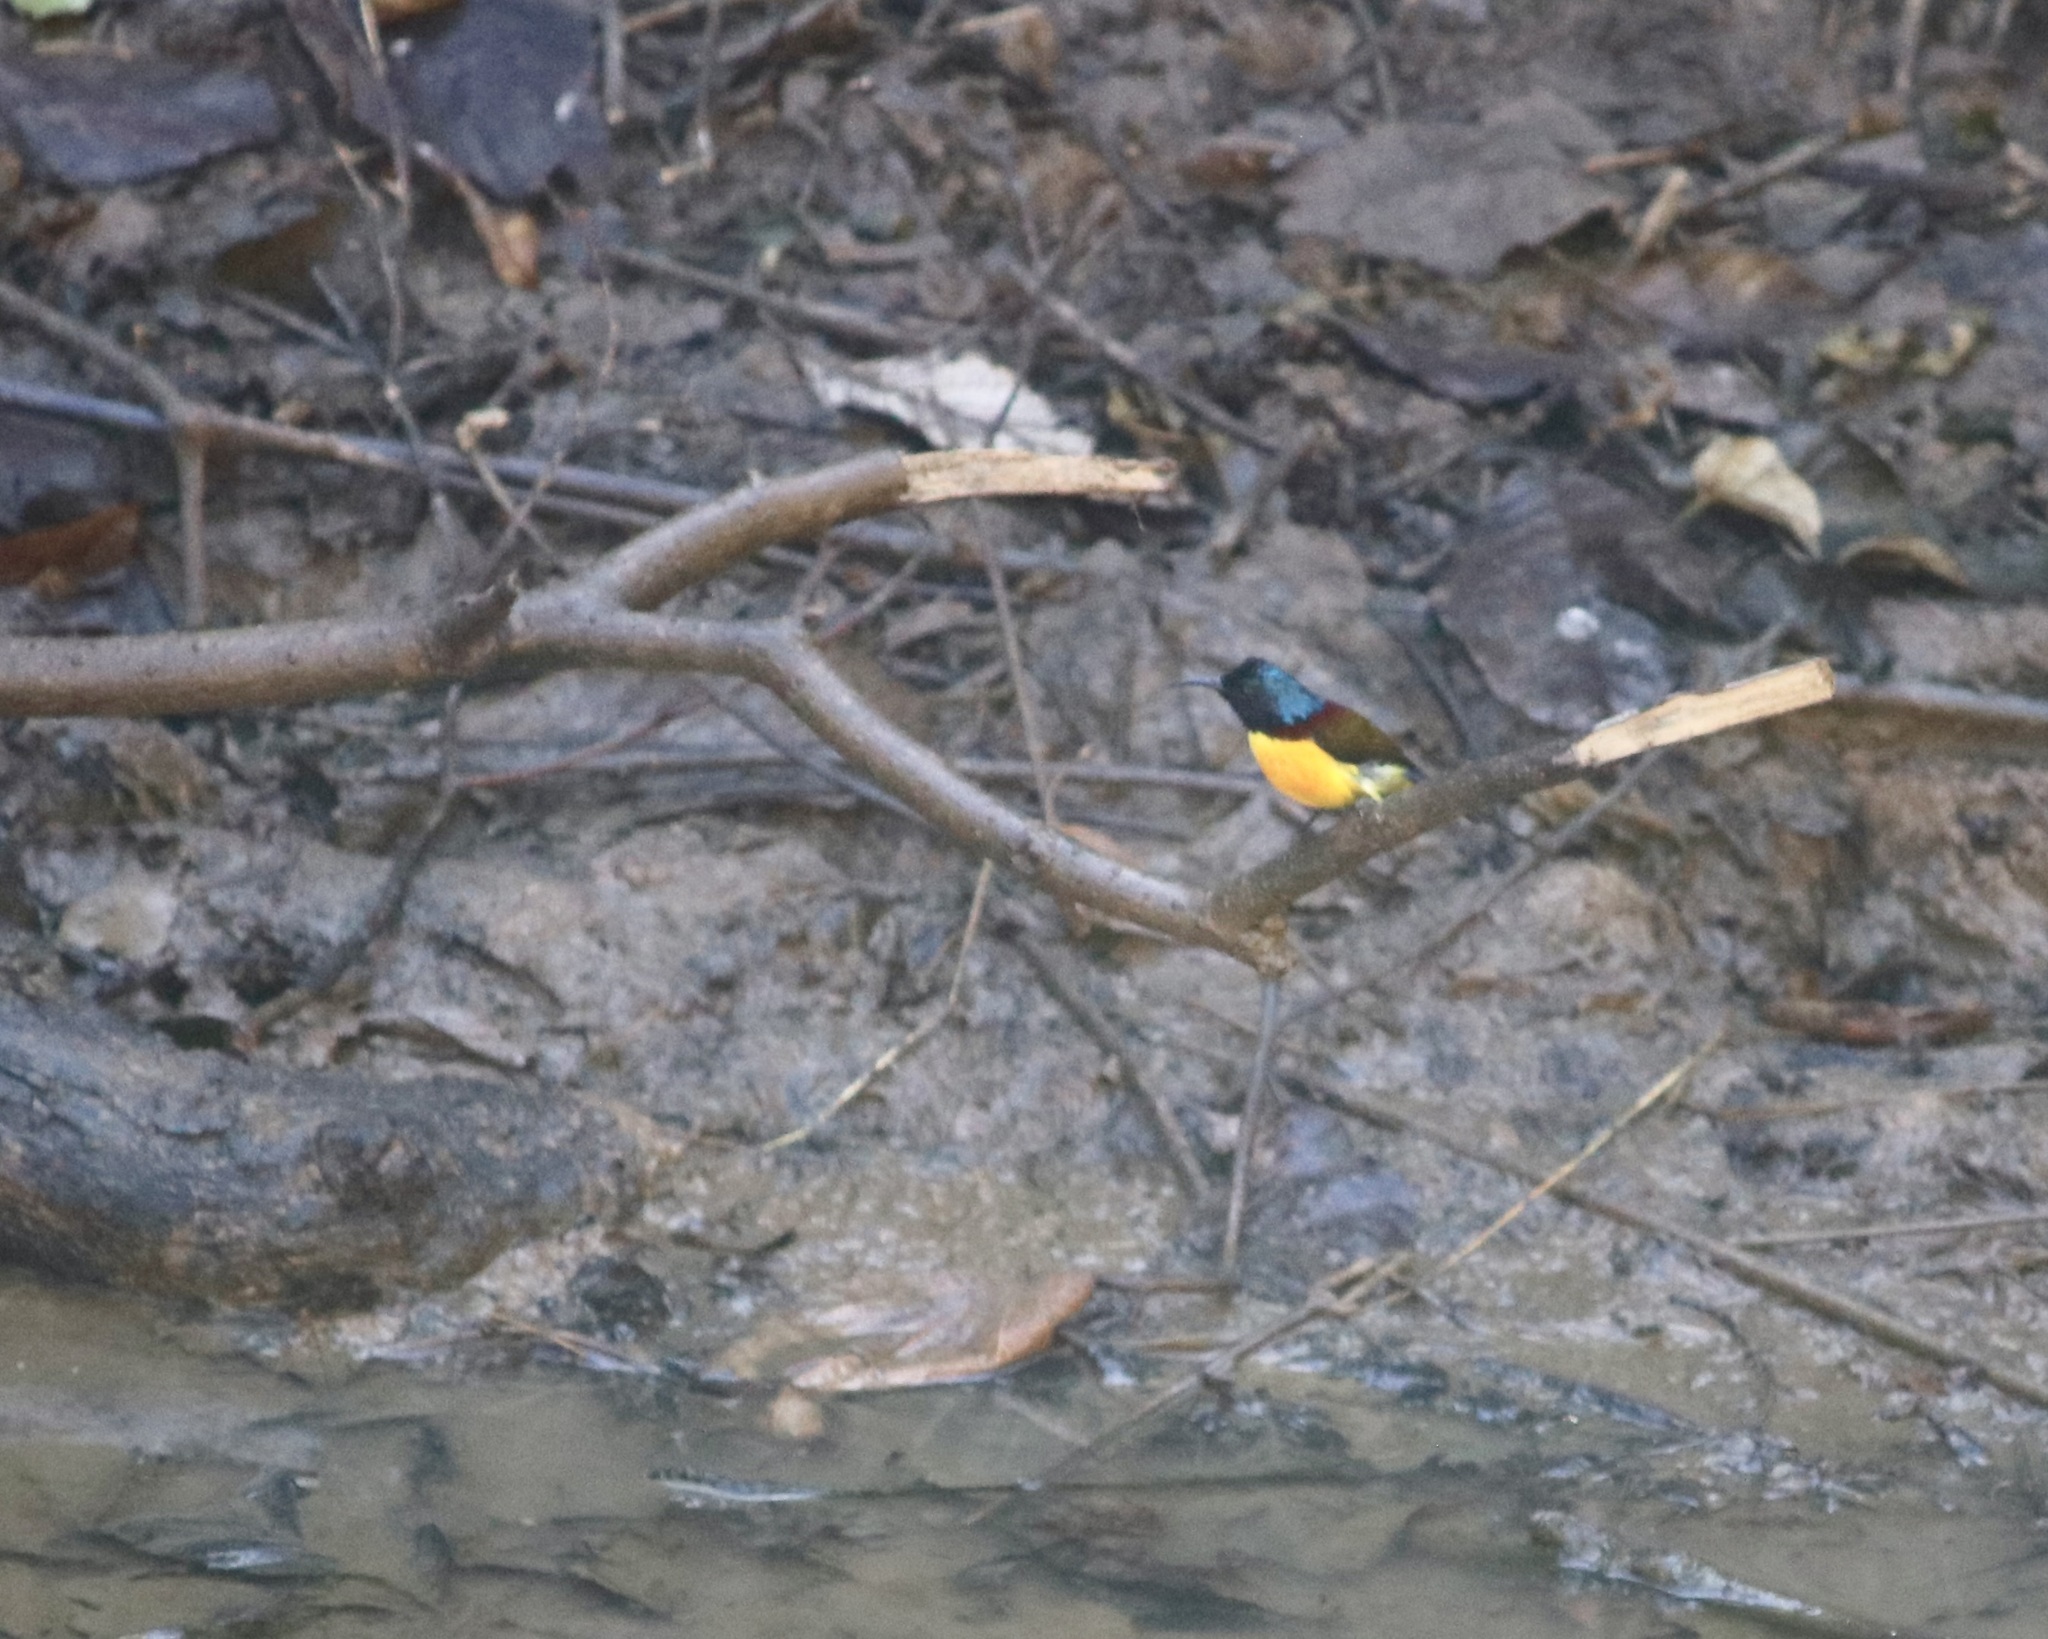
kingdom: Animalia
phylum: Chordata
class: Aves
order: Passeriformes
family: Nectariniidae
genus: Aethopyga
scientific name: Aethopyga nipalensis
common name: Green-tailed sunbird
